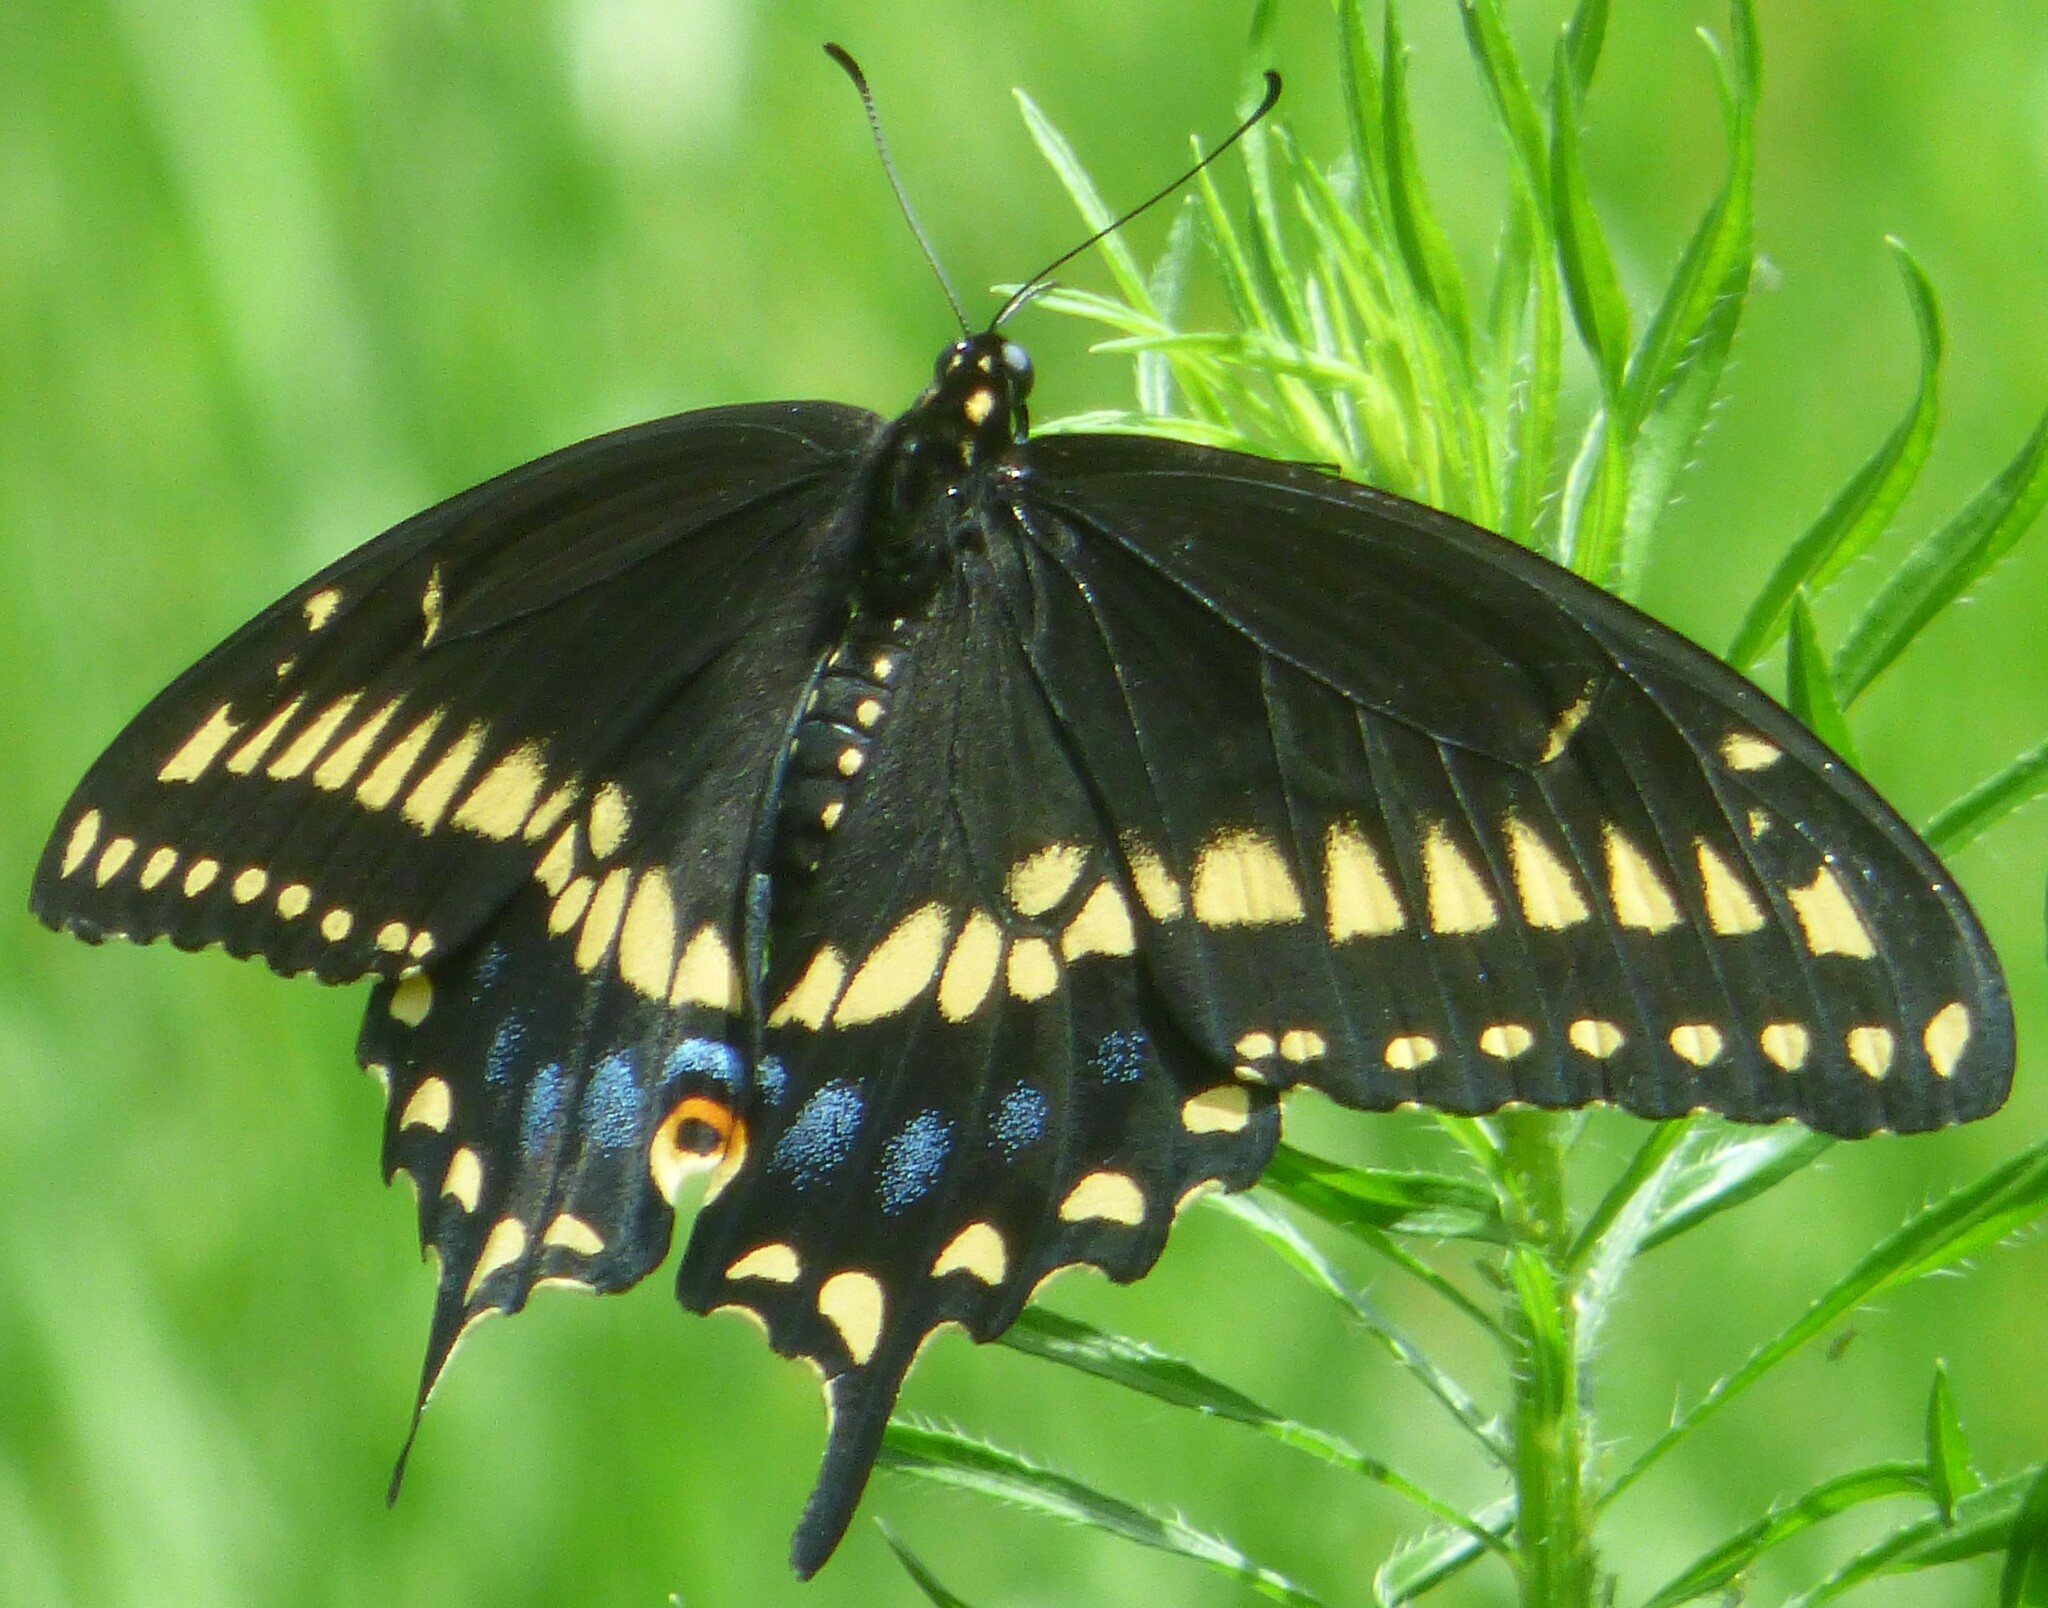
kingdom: Animalia
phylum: Arthropoda
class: Insecta
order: Lepidoptera
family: Papilionidae
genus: Papilio
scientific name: Papilio polyxenes
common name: Black swallowtail
